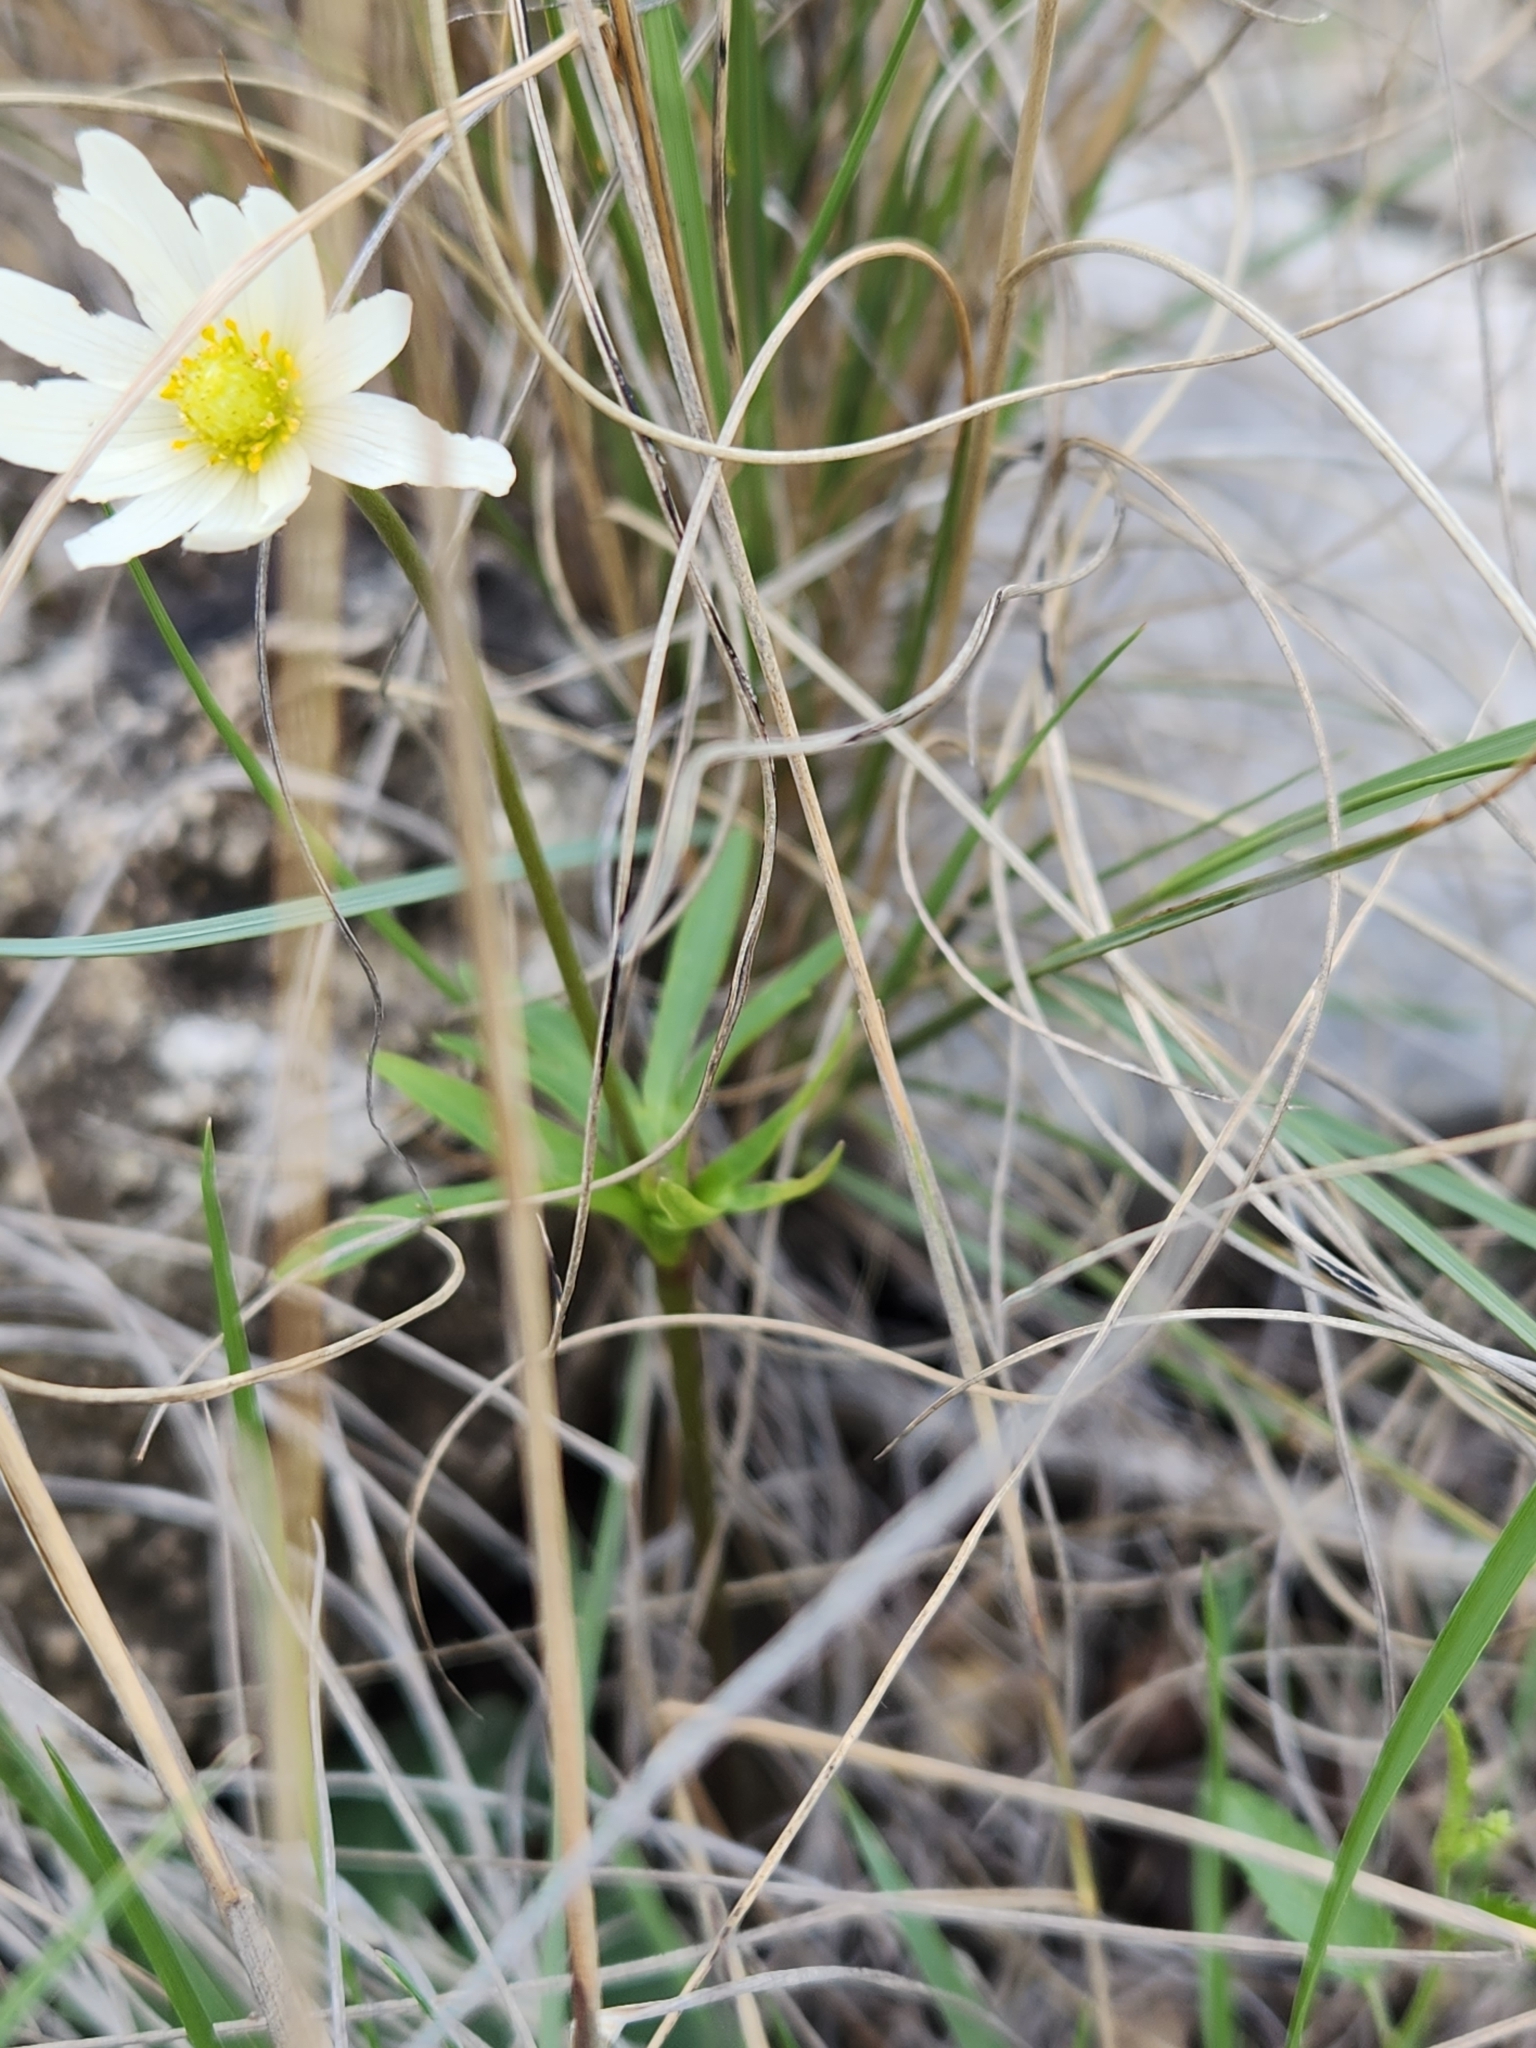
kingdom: Plantae
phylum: Tracheophyta
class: Magnoliopsida
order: Ranunculales
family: Ranunculaceae
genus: Anemone
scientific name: Anemone edwardsiana
